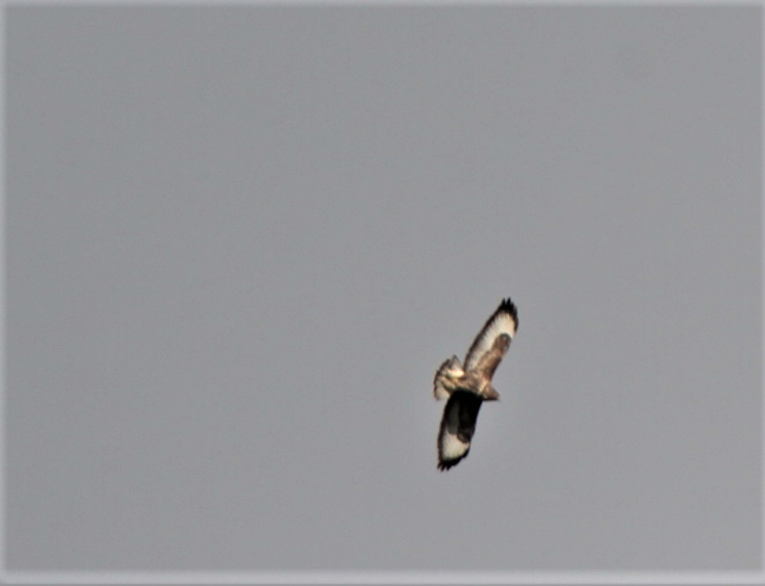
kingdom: Animalia
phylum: Chordata
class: Aves
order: Accipitriformes
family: Accipitridae
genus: Buteo
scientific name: Buteo buteo
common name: Common buzzard
